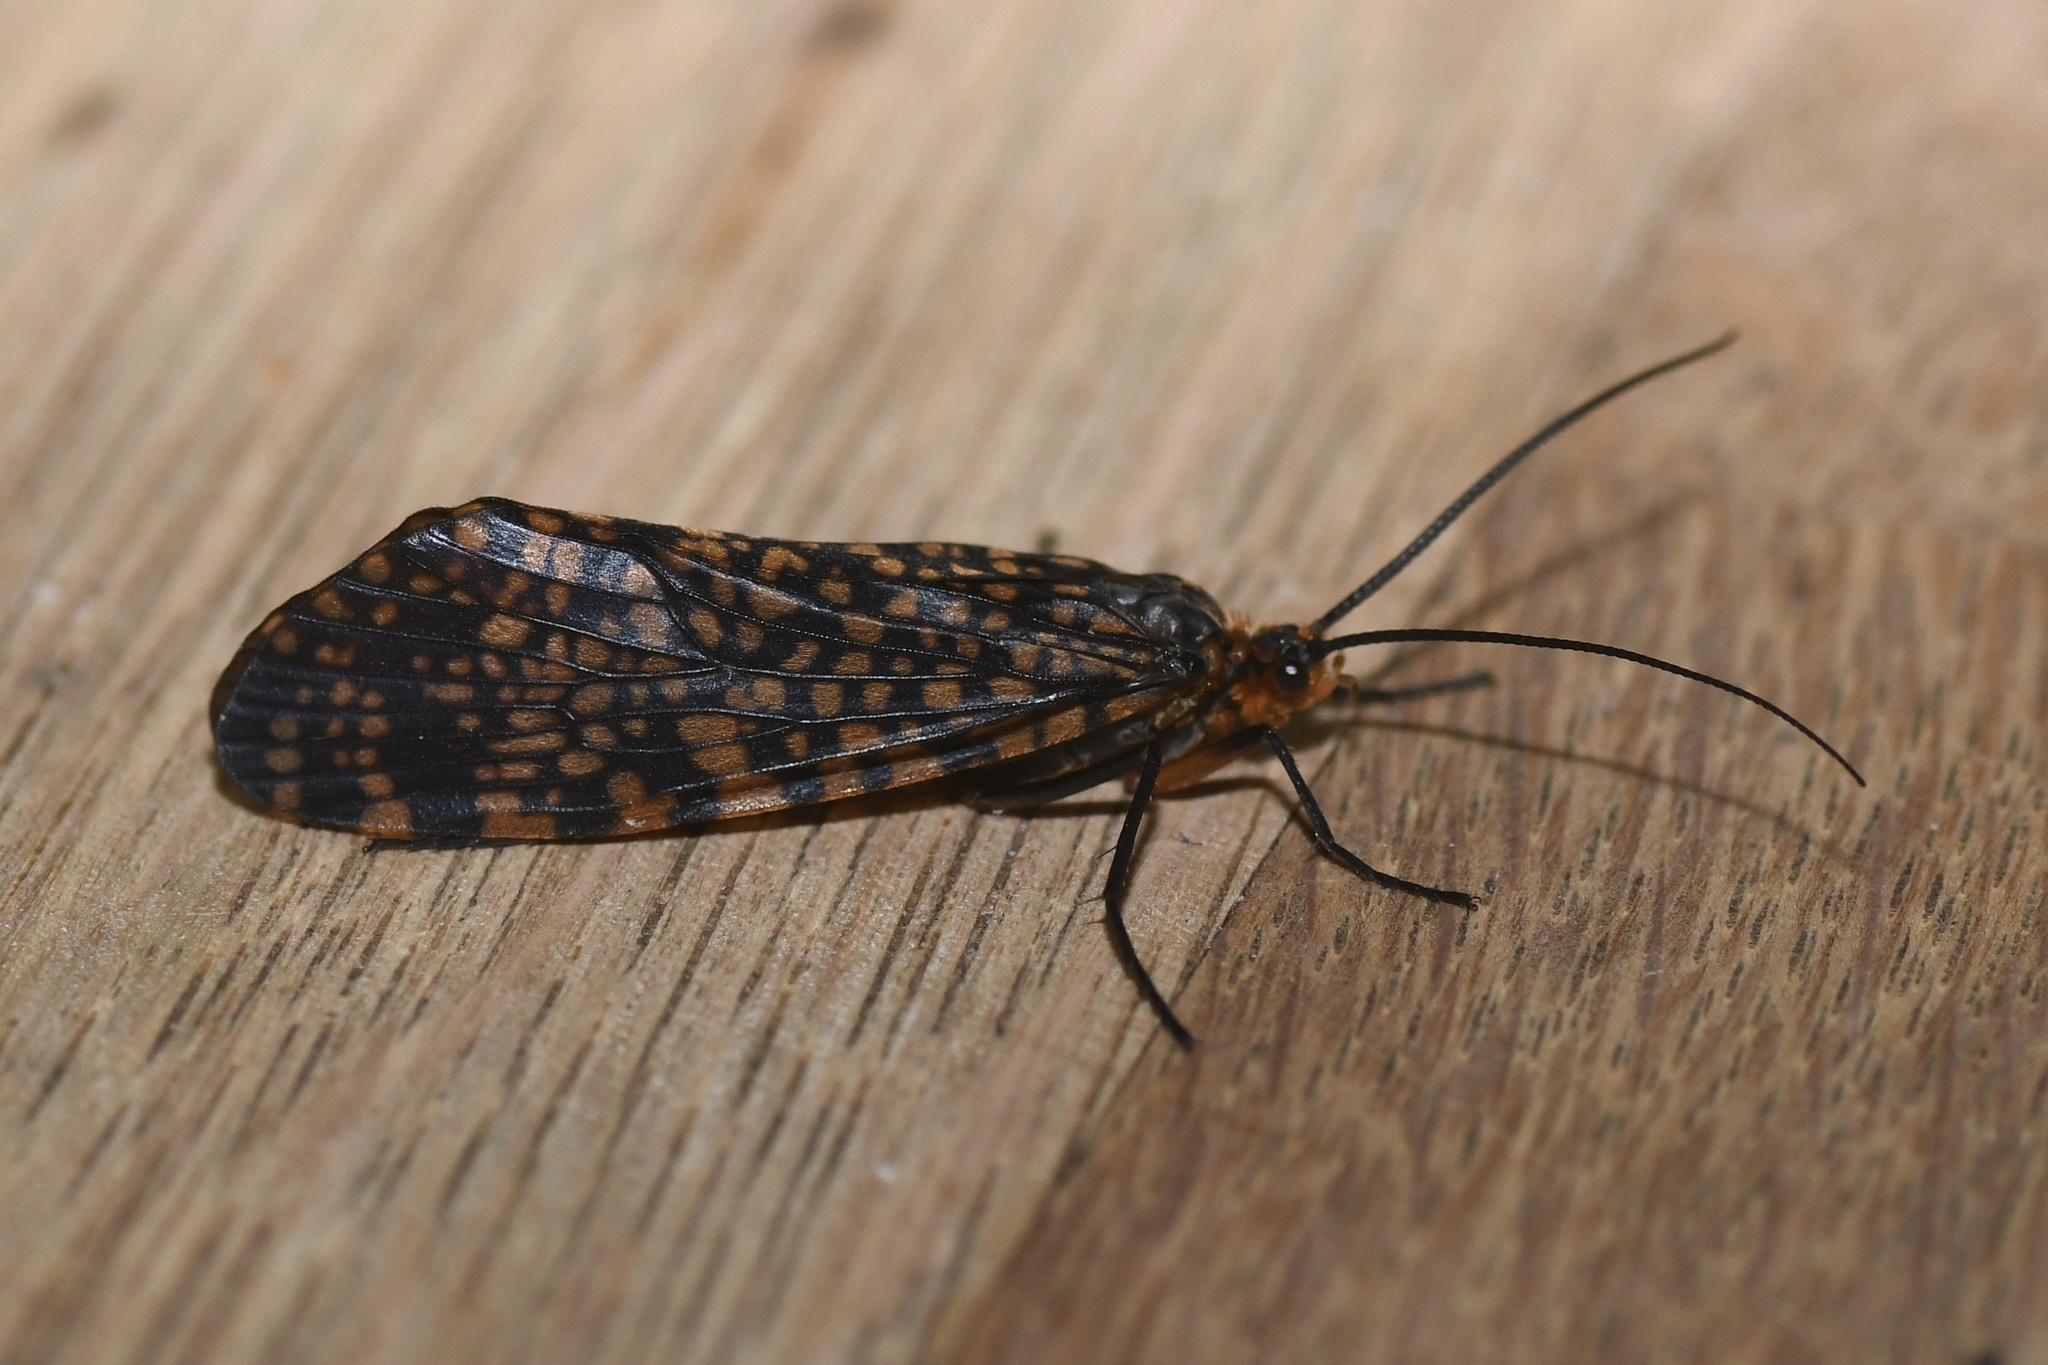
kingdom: Animalia
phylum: Arthropoda
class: Insecta
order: Trichoptera
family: Phryganeidae
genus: Oligostomis
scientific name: Oligostomis pardalis
